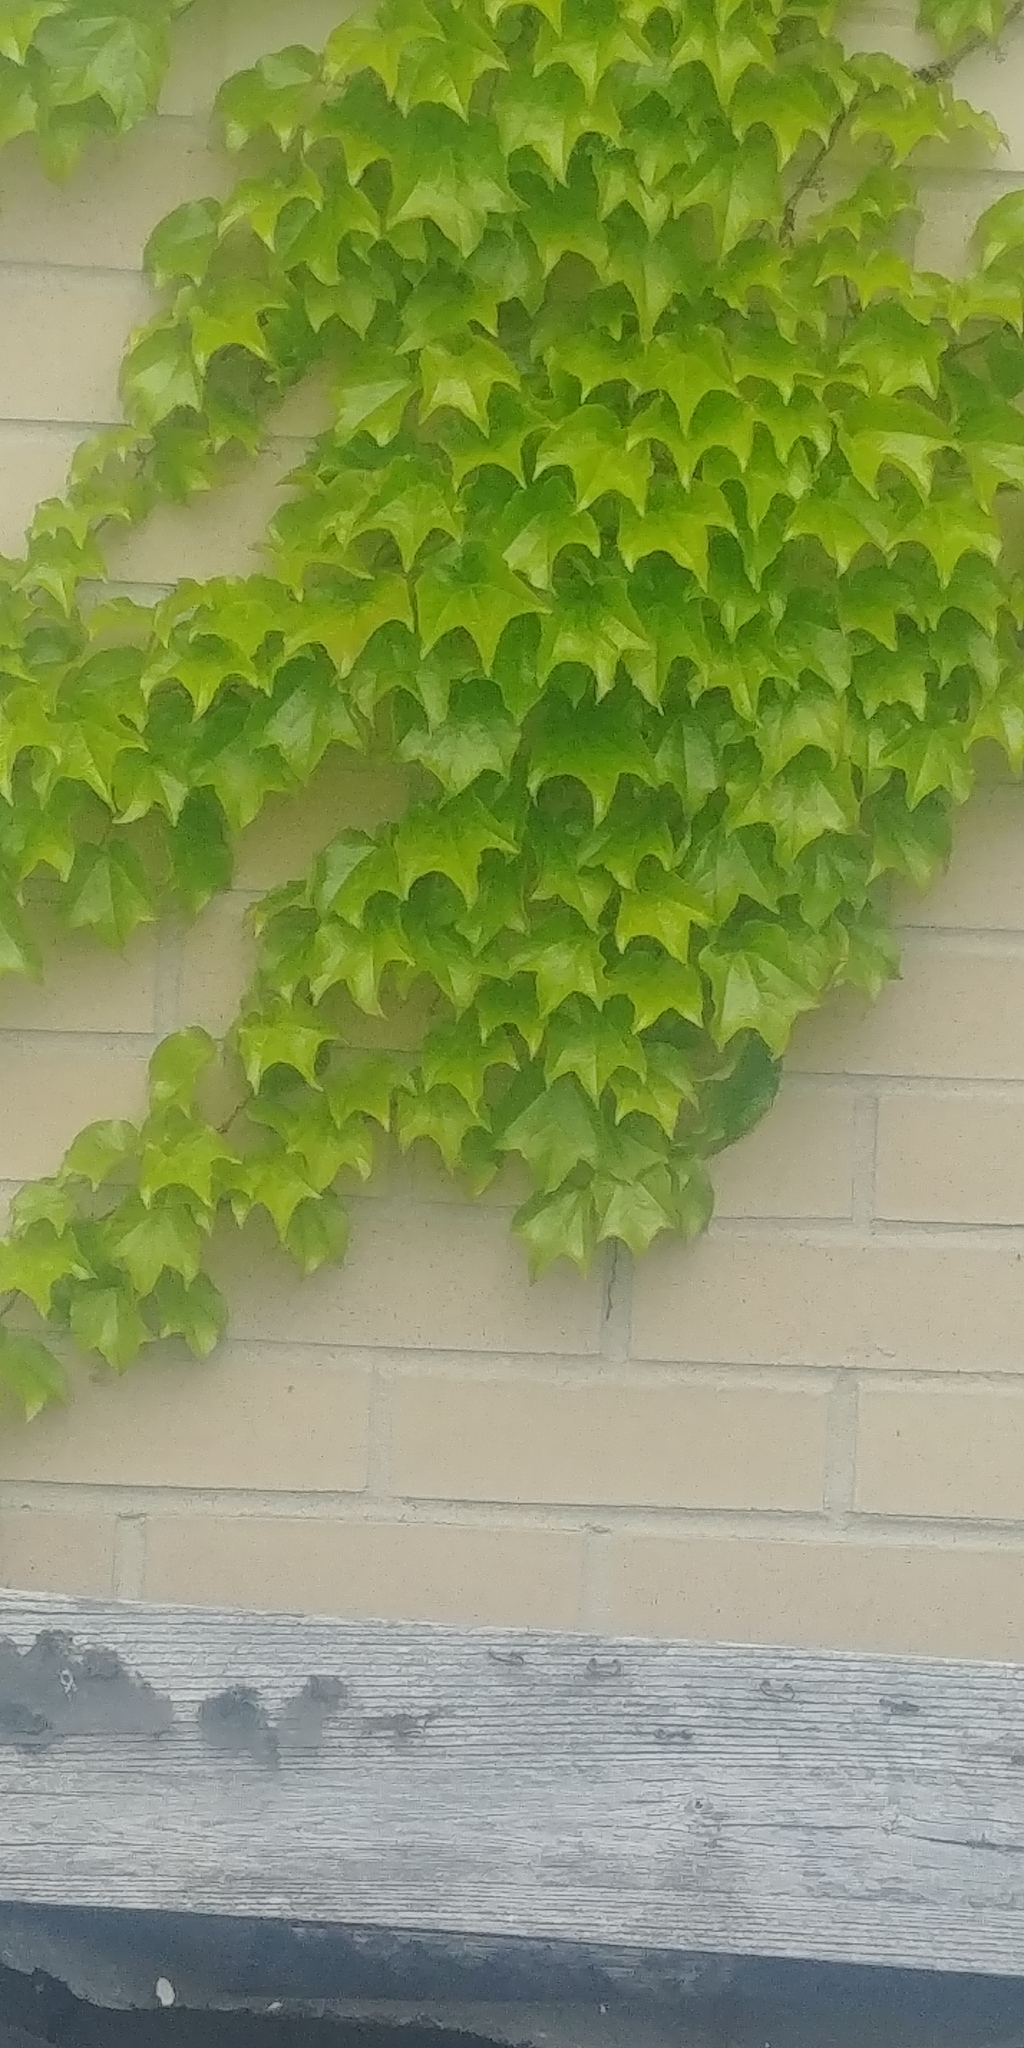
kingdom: Plantae
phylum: Tracheophyta
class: Magnoliopsida
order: Vitales
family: Vitaceae
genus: Parthenocissus
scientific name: Parthenocissus tricuspidata
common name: Boston ivy
